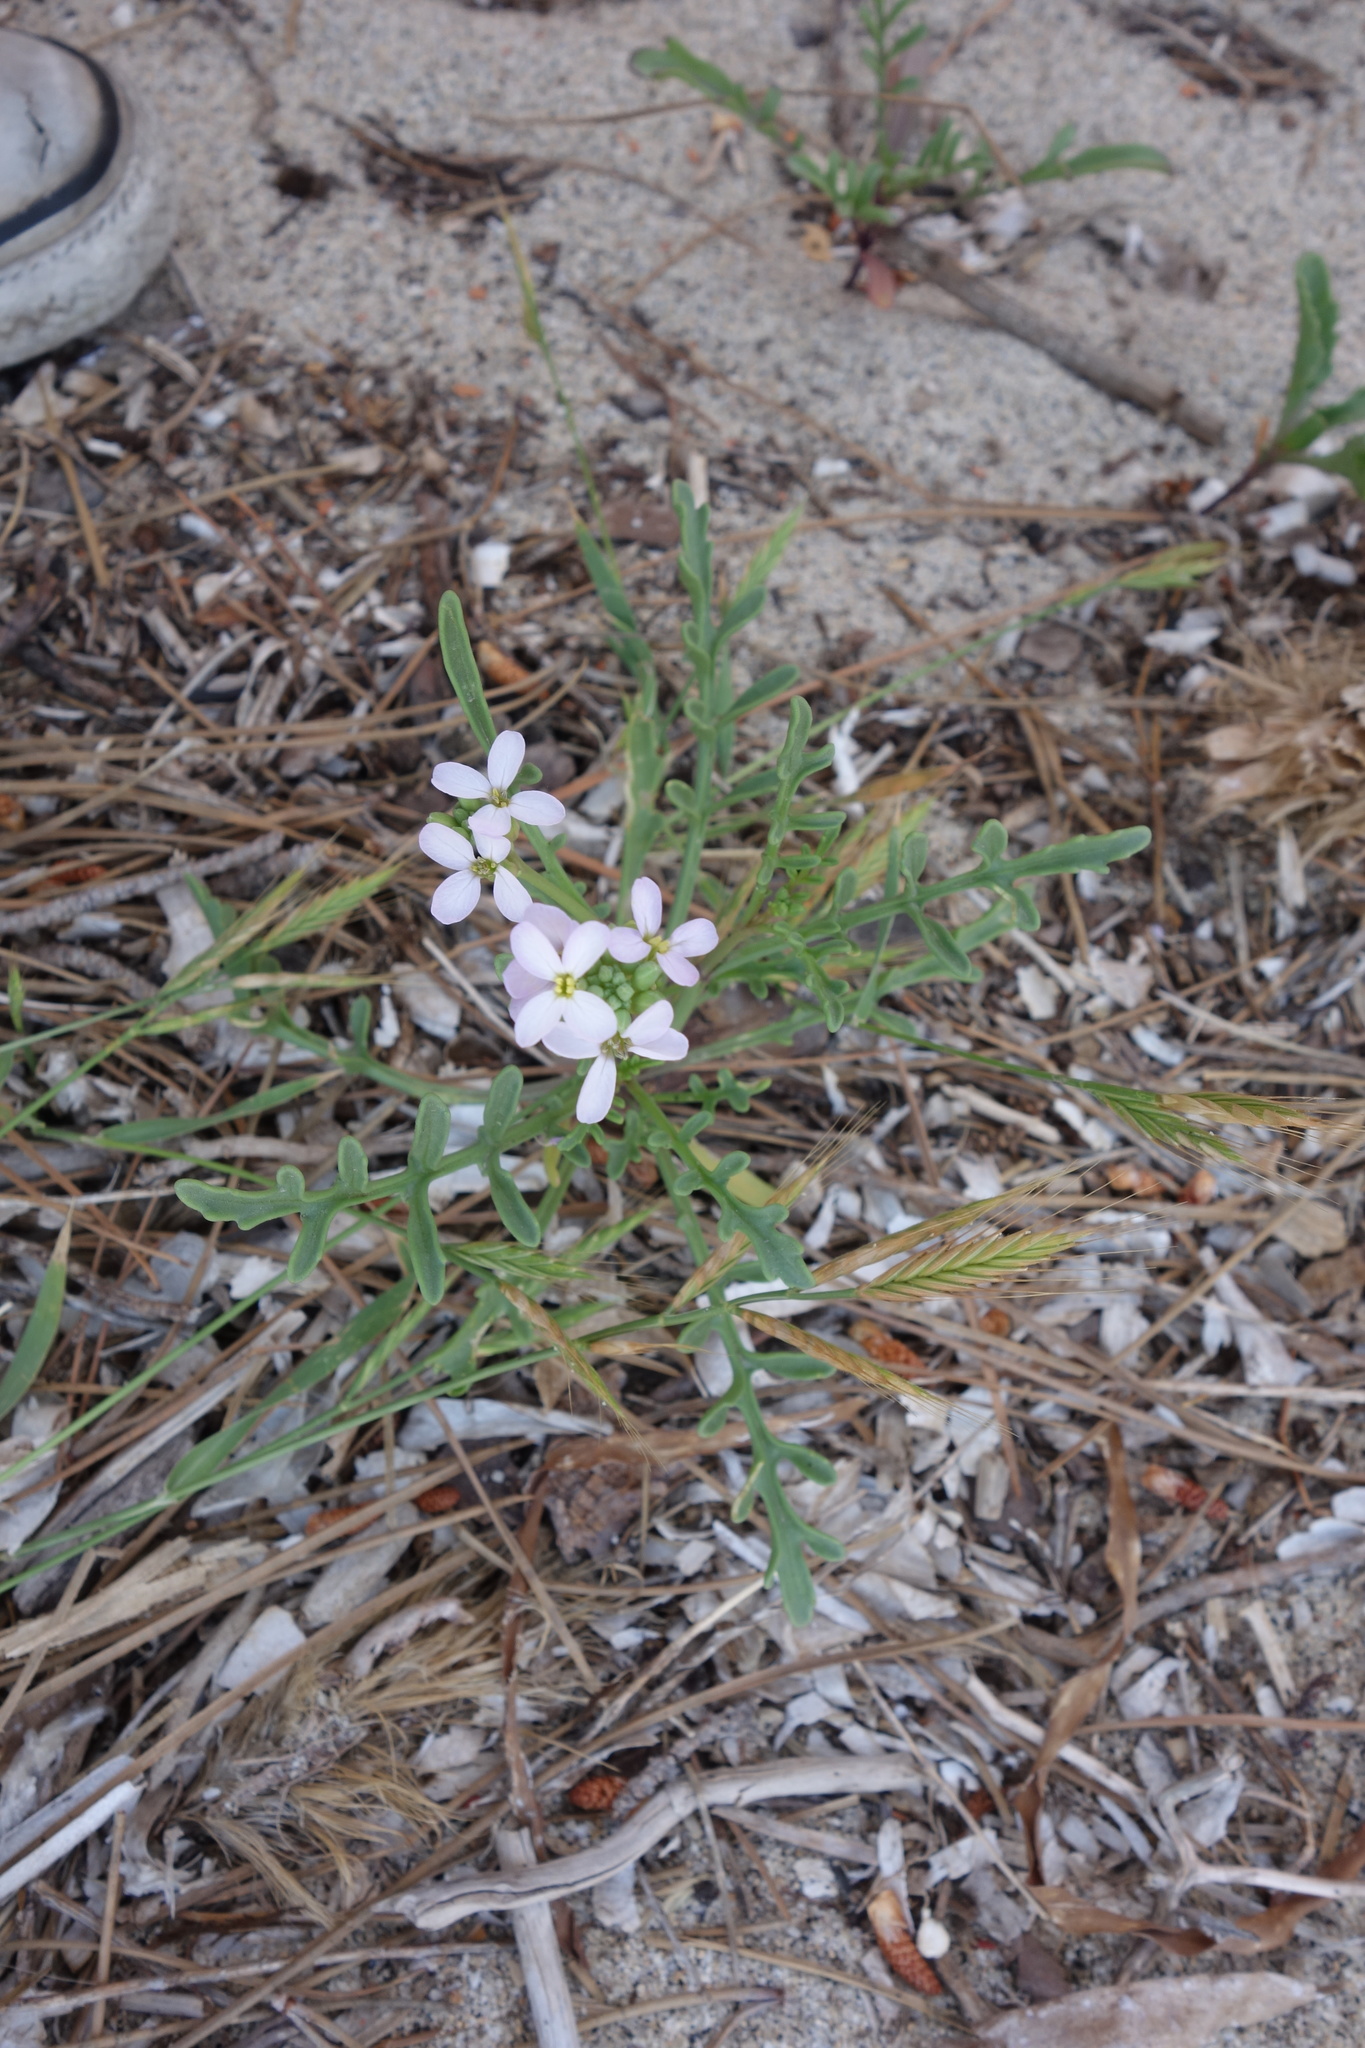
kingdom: Plantae
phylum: Tracheophyta
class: Magnoliopsida
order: Brassicales
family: Brassicaceae
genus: Cakile
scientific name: Cakile maritima
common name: Sea rocket
